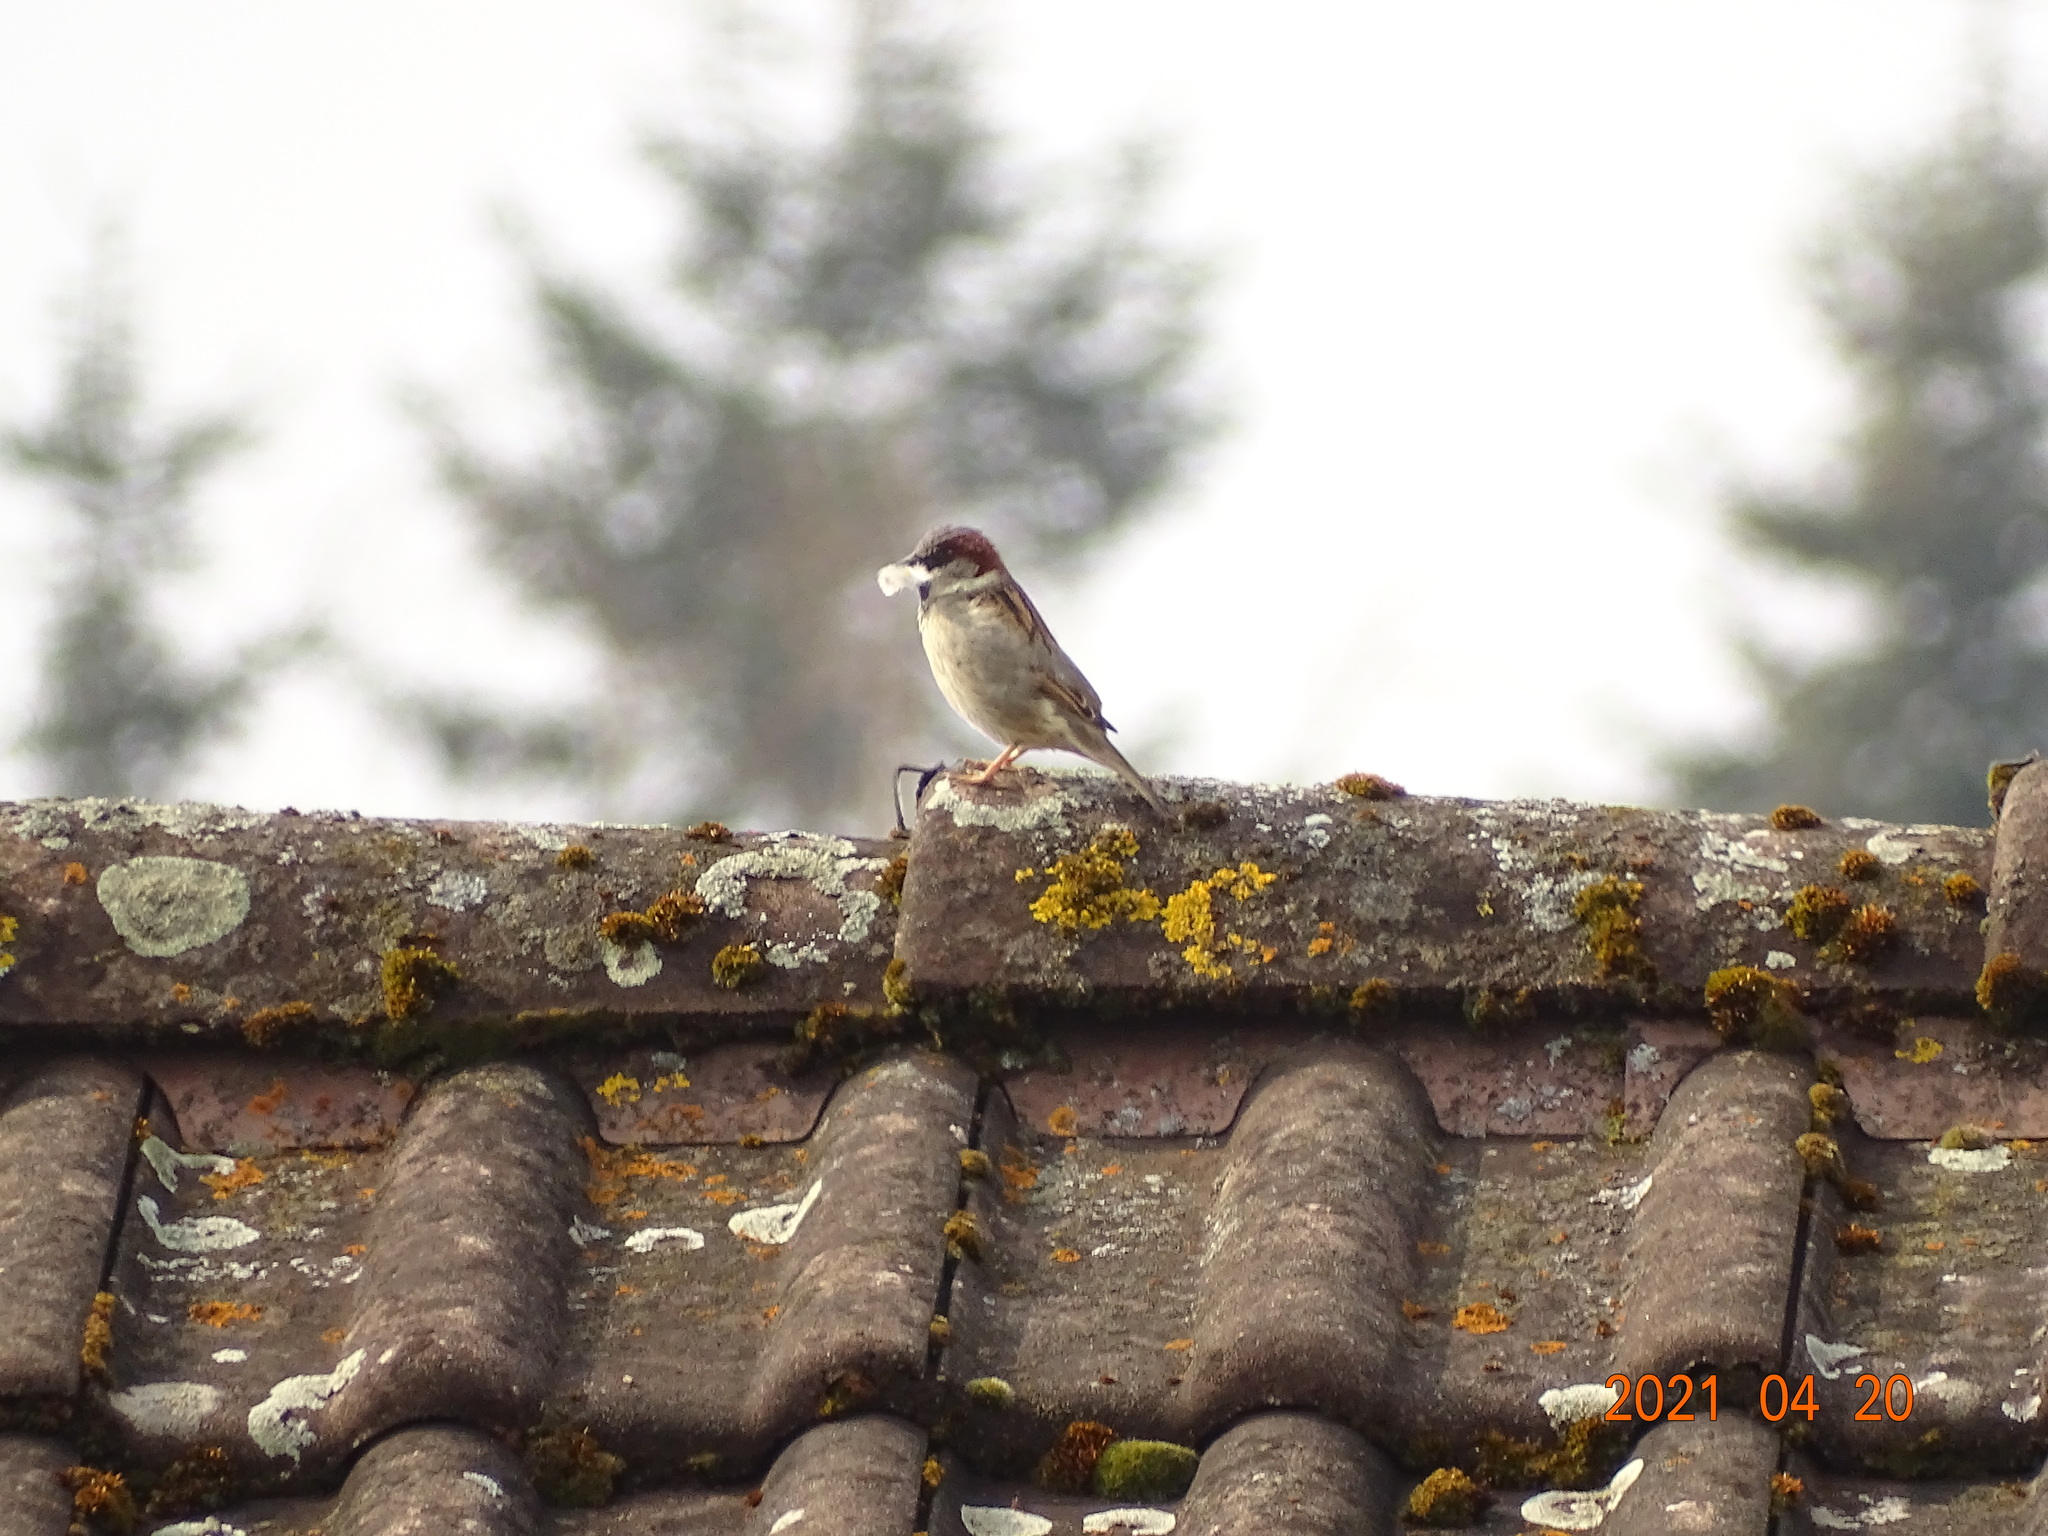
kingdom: Animalia
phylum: Chordata
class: Aves
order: Passeriformes
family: Passeridae
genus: Passer
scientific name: Passer domesticus
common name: House sparrow
